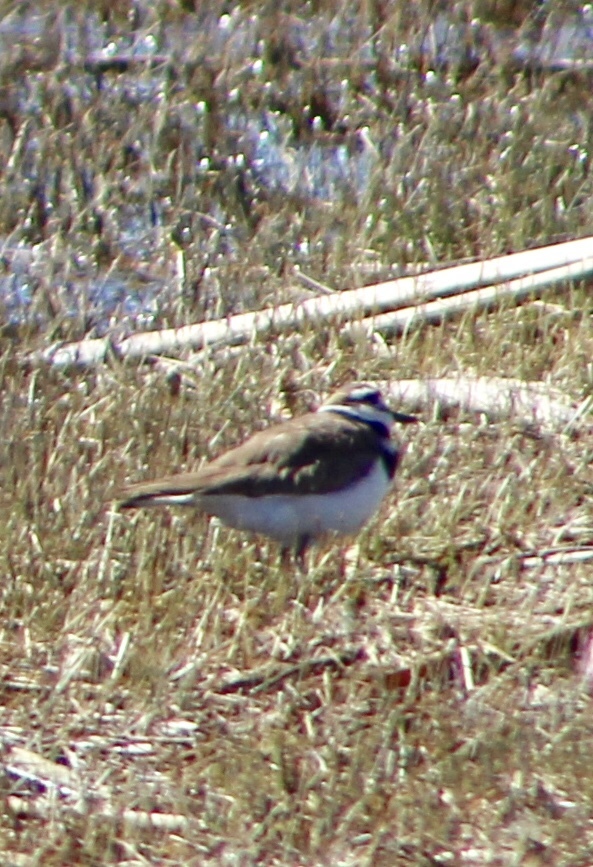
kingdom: Animalia
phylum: Chordata
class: Aves
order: Charadriiformes
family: Charadriidae
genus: Charadrius
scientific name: Charadrius vociferus
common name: Killdeer
